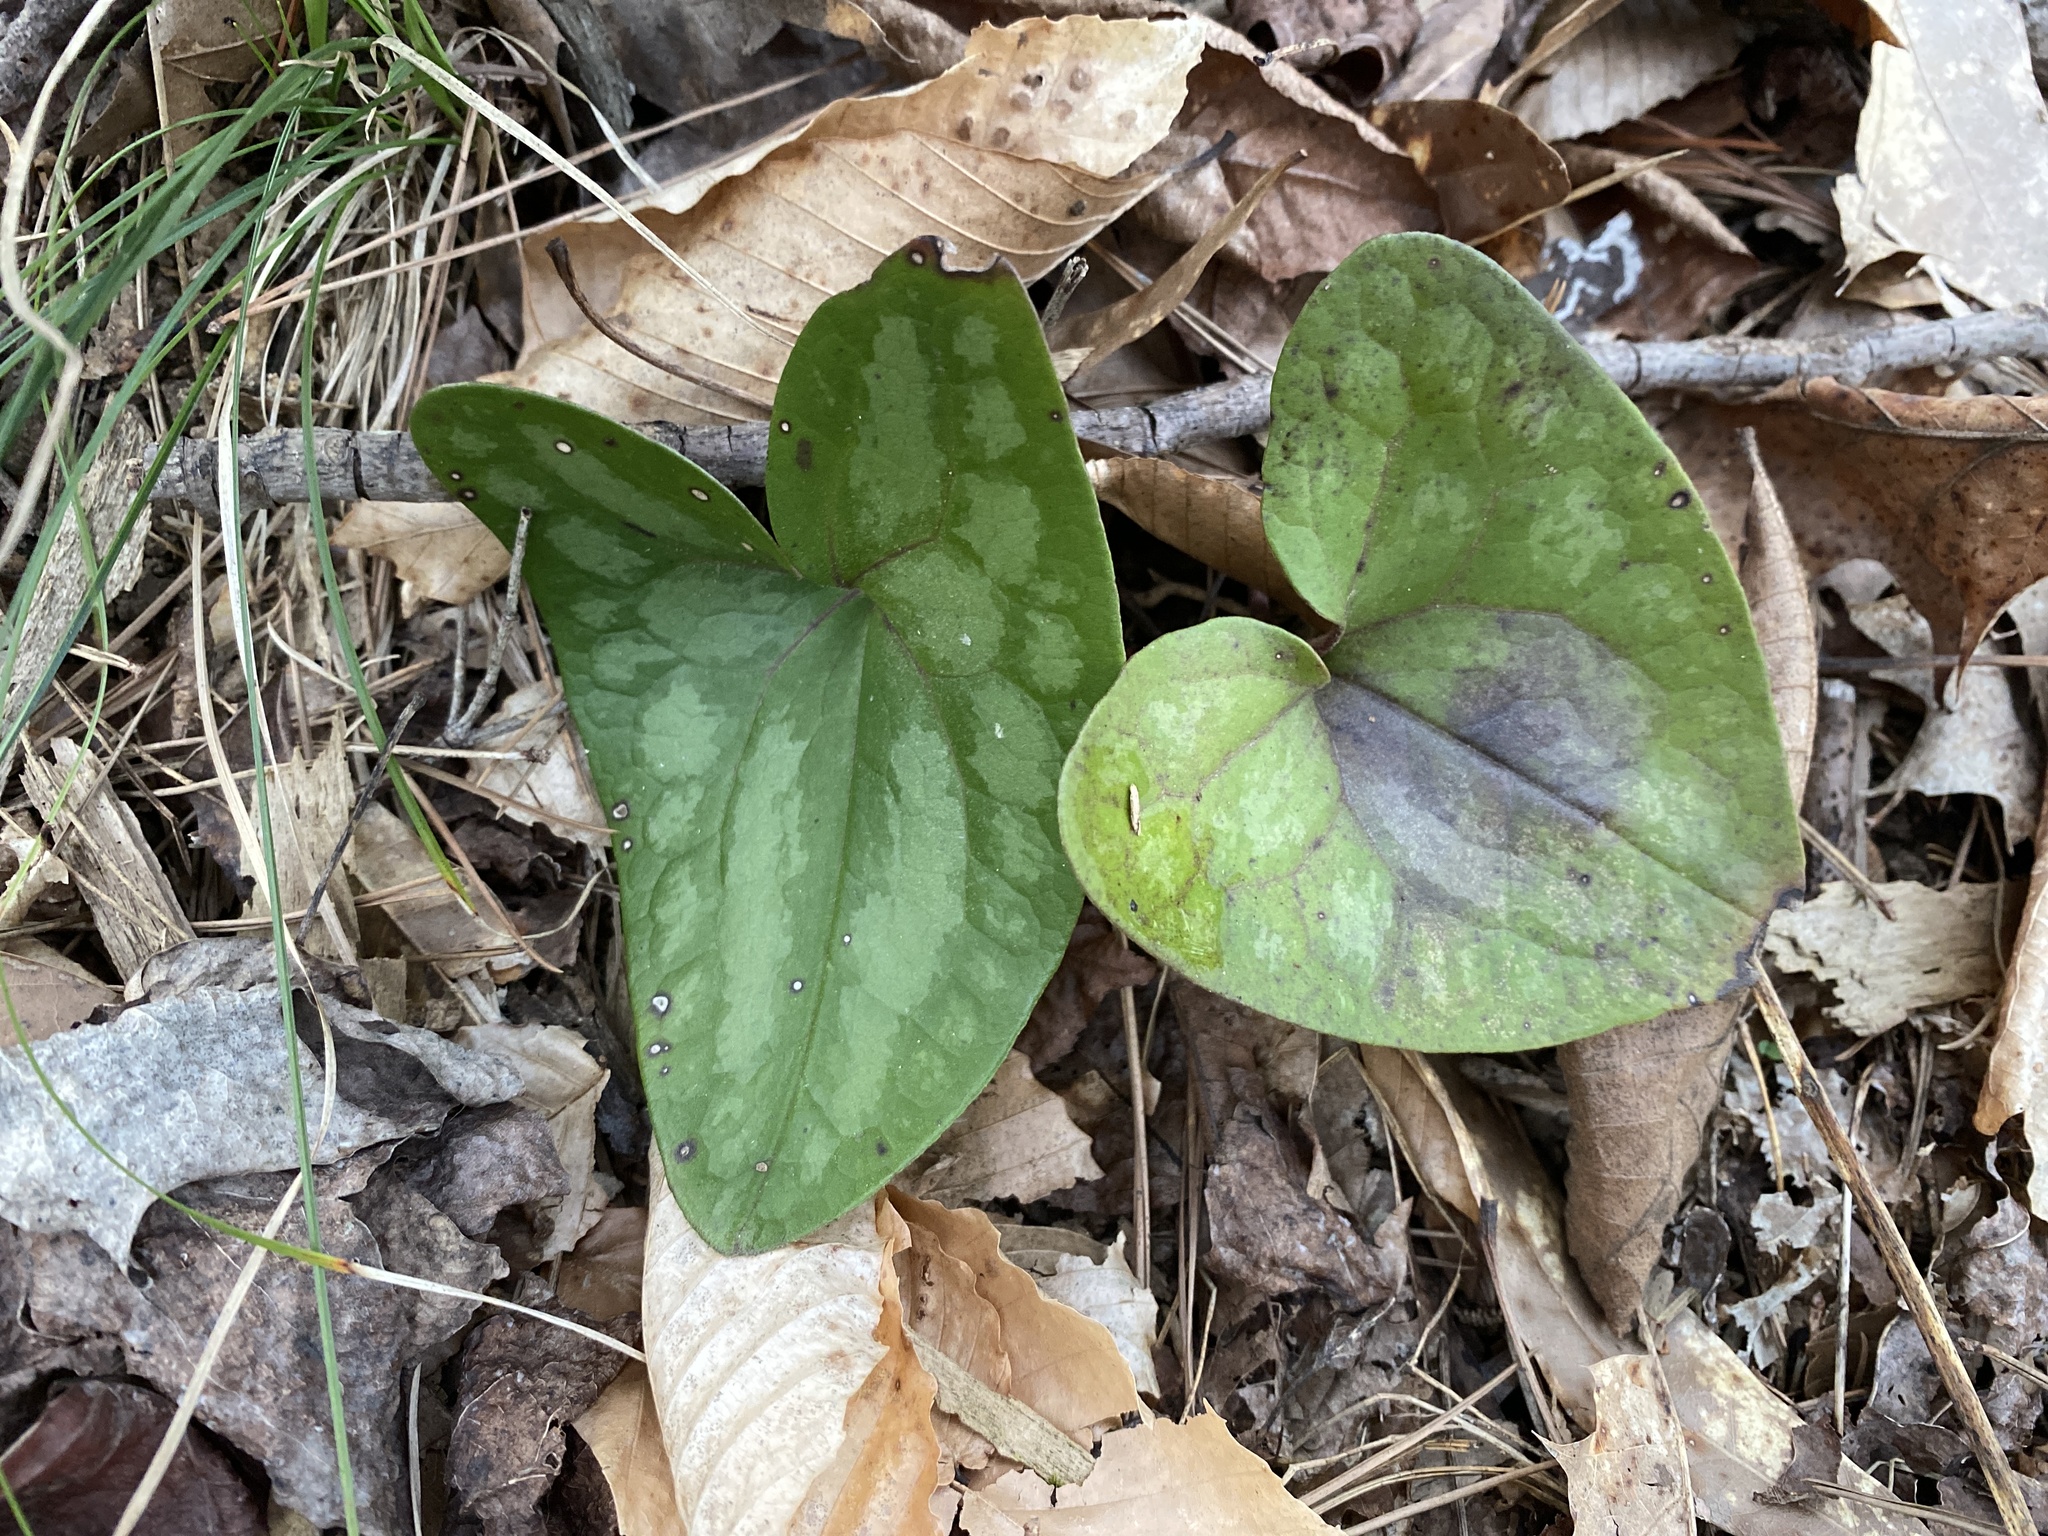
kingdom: Plantae
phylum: Tracheophyta
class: Magnoliopsida
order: Piperales
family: Aristolochiaceae
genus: Hexastylis
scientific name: Hexastylis arifolia
